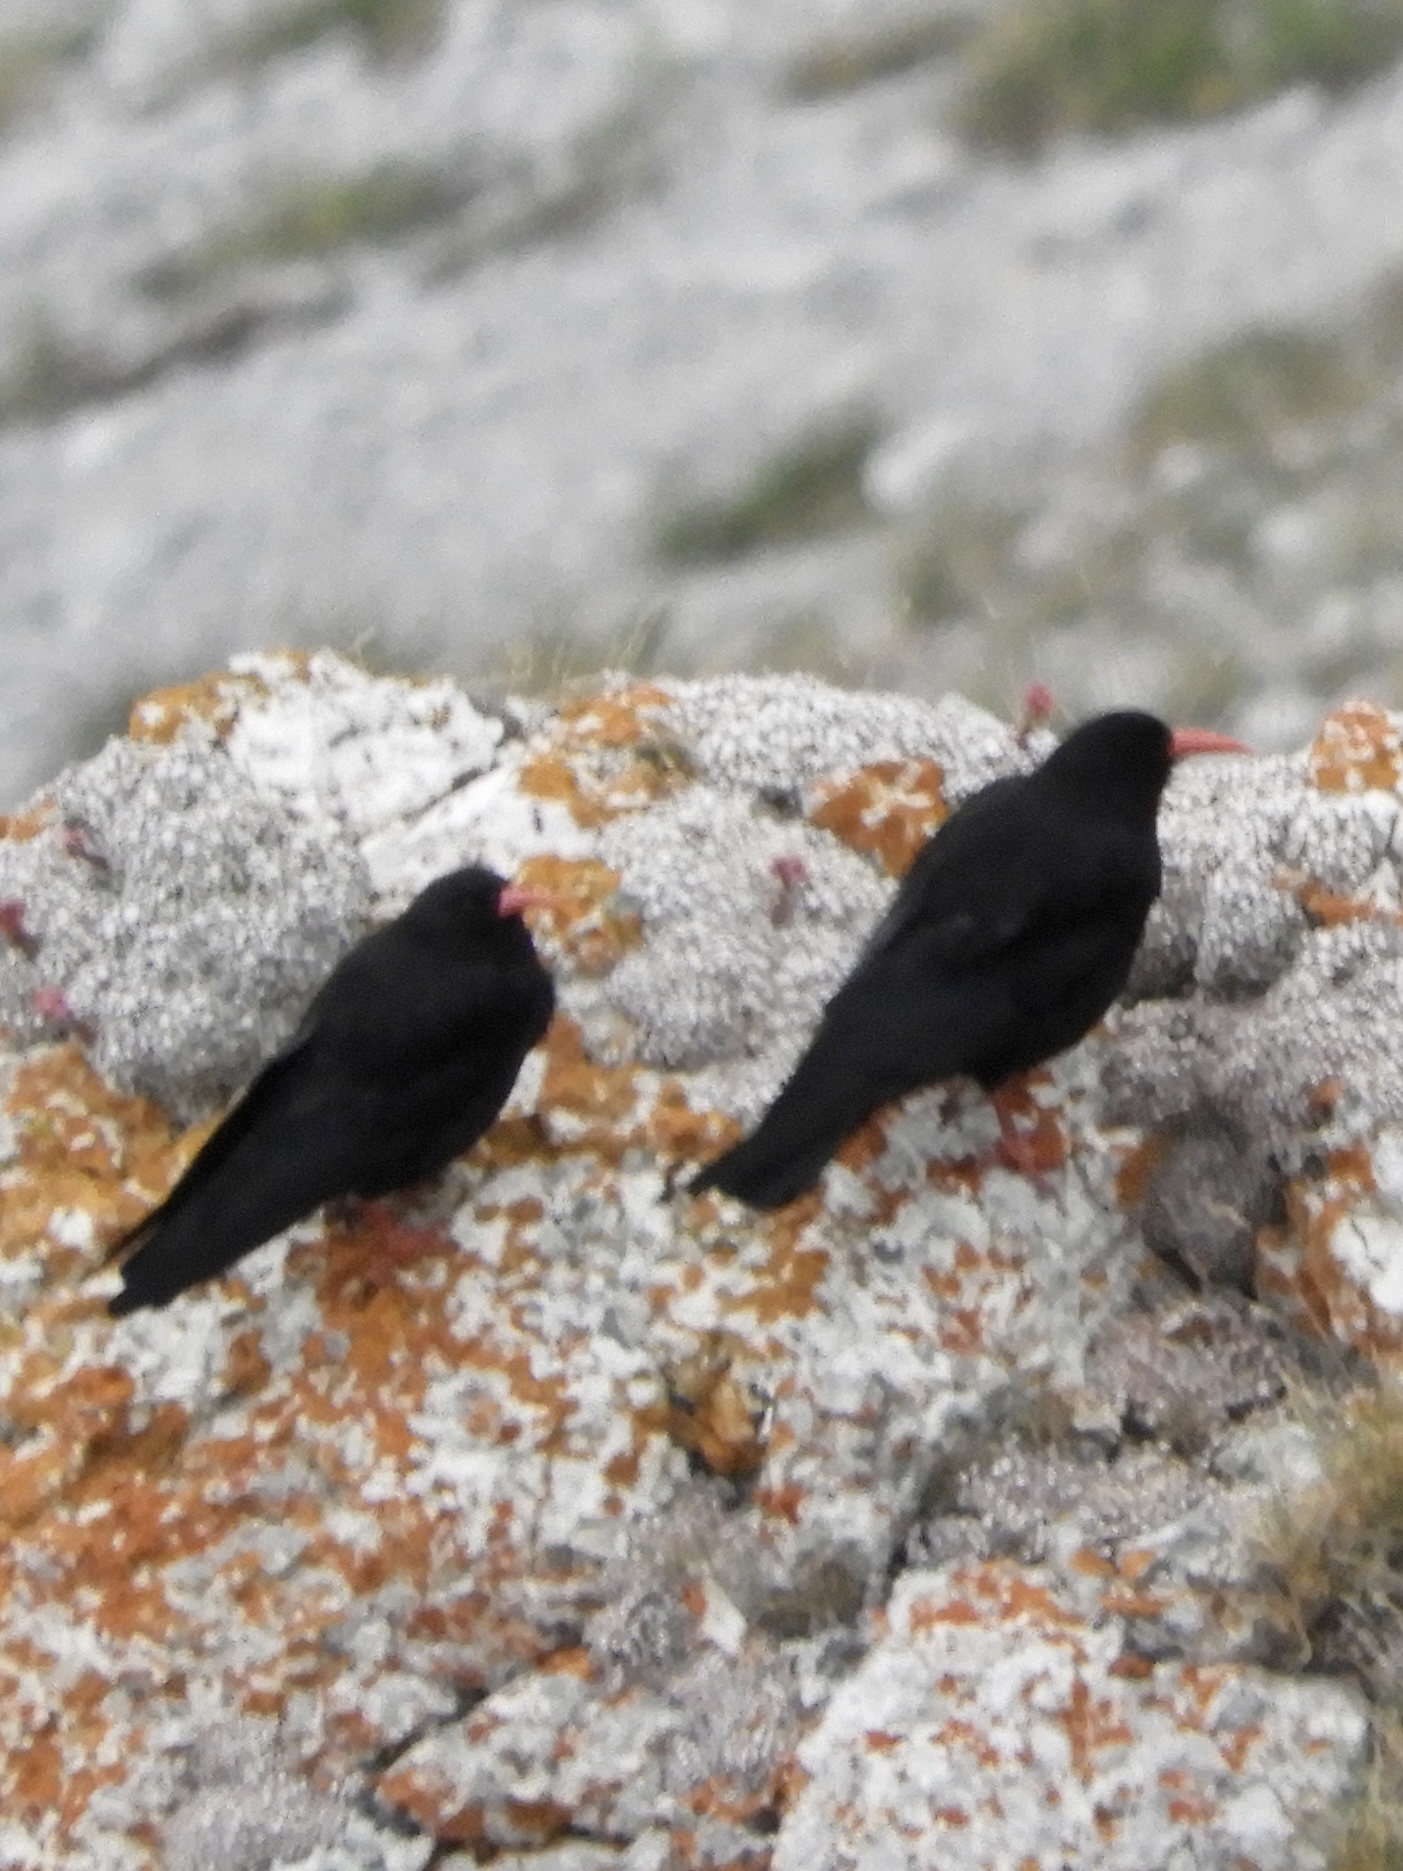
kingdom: Animalia
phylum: Chordata
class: Aves
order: Passeriformes
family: Corvidae
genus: Pyrrhocorax
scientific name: Pyrrhocorax pyrrhocorax
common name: Red-billed chough
